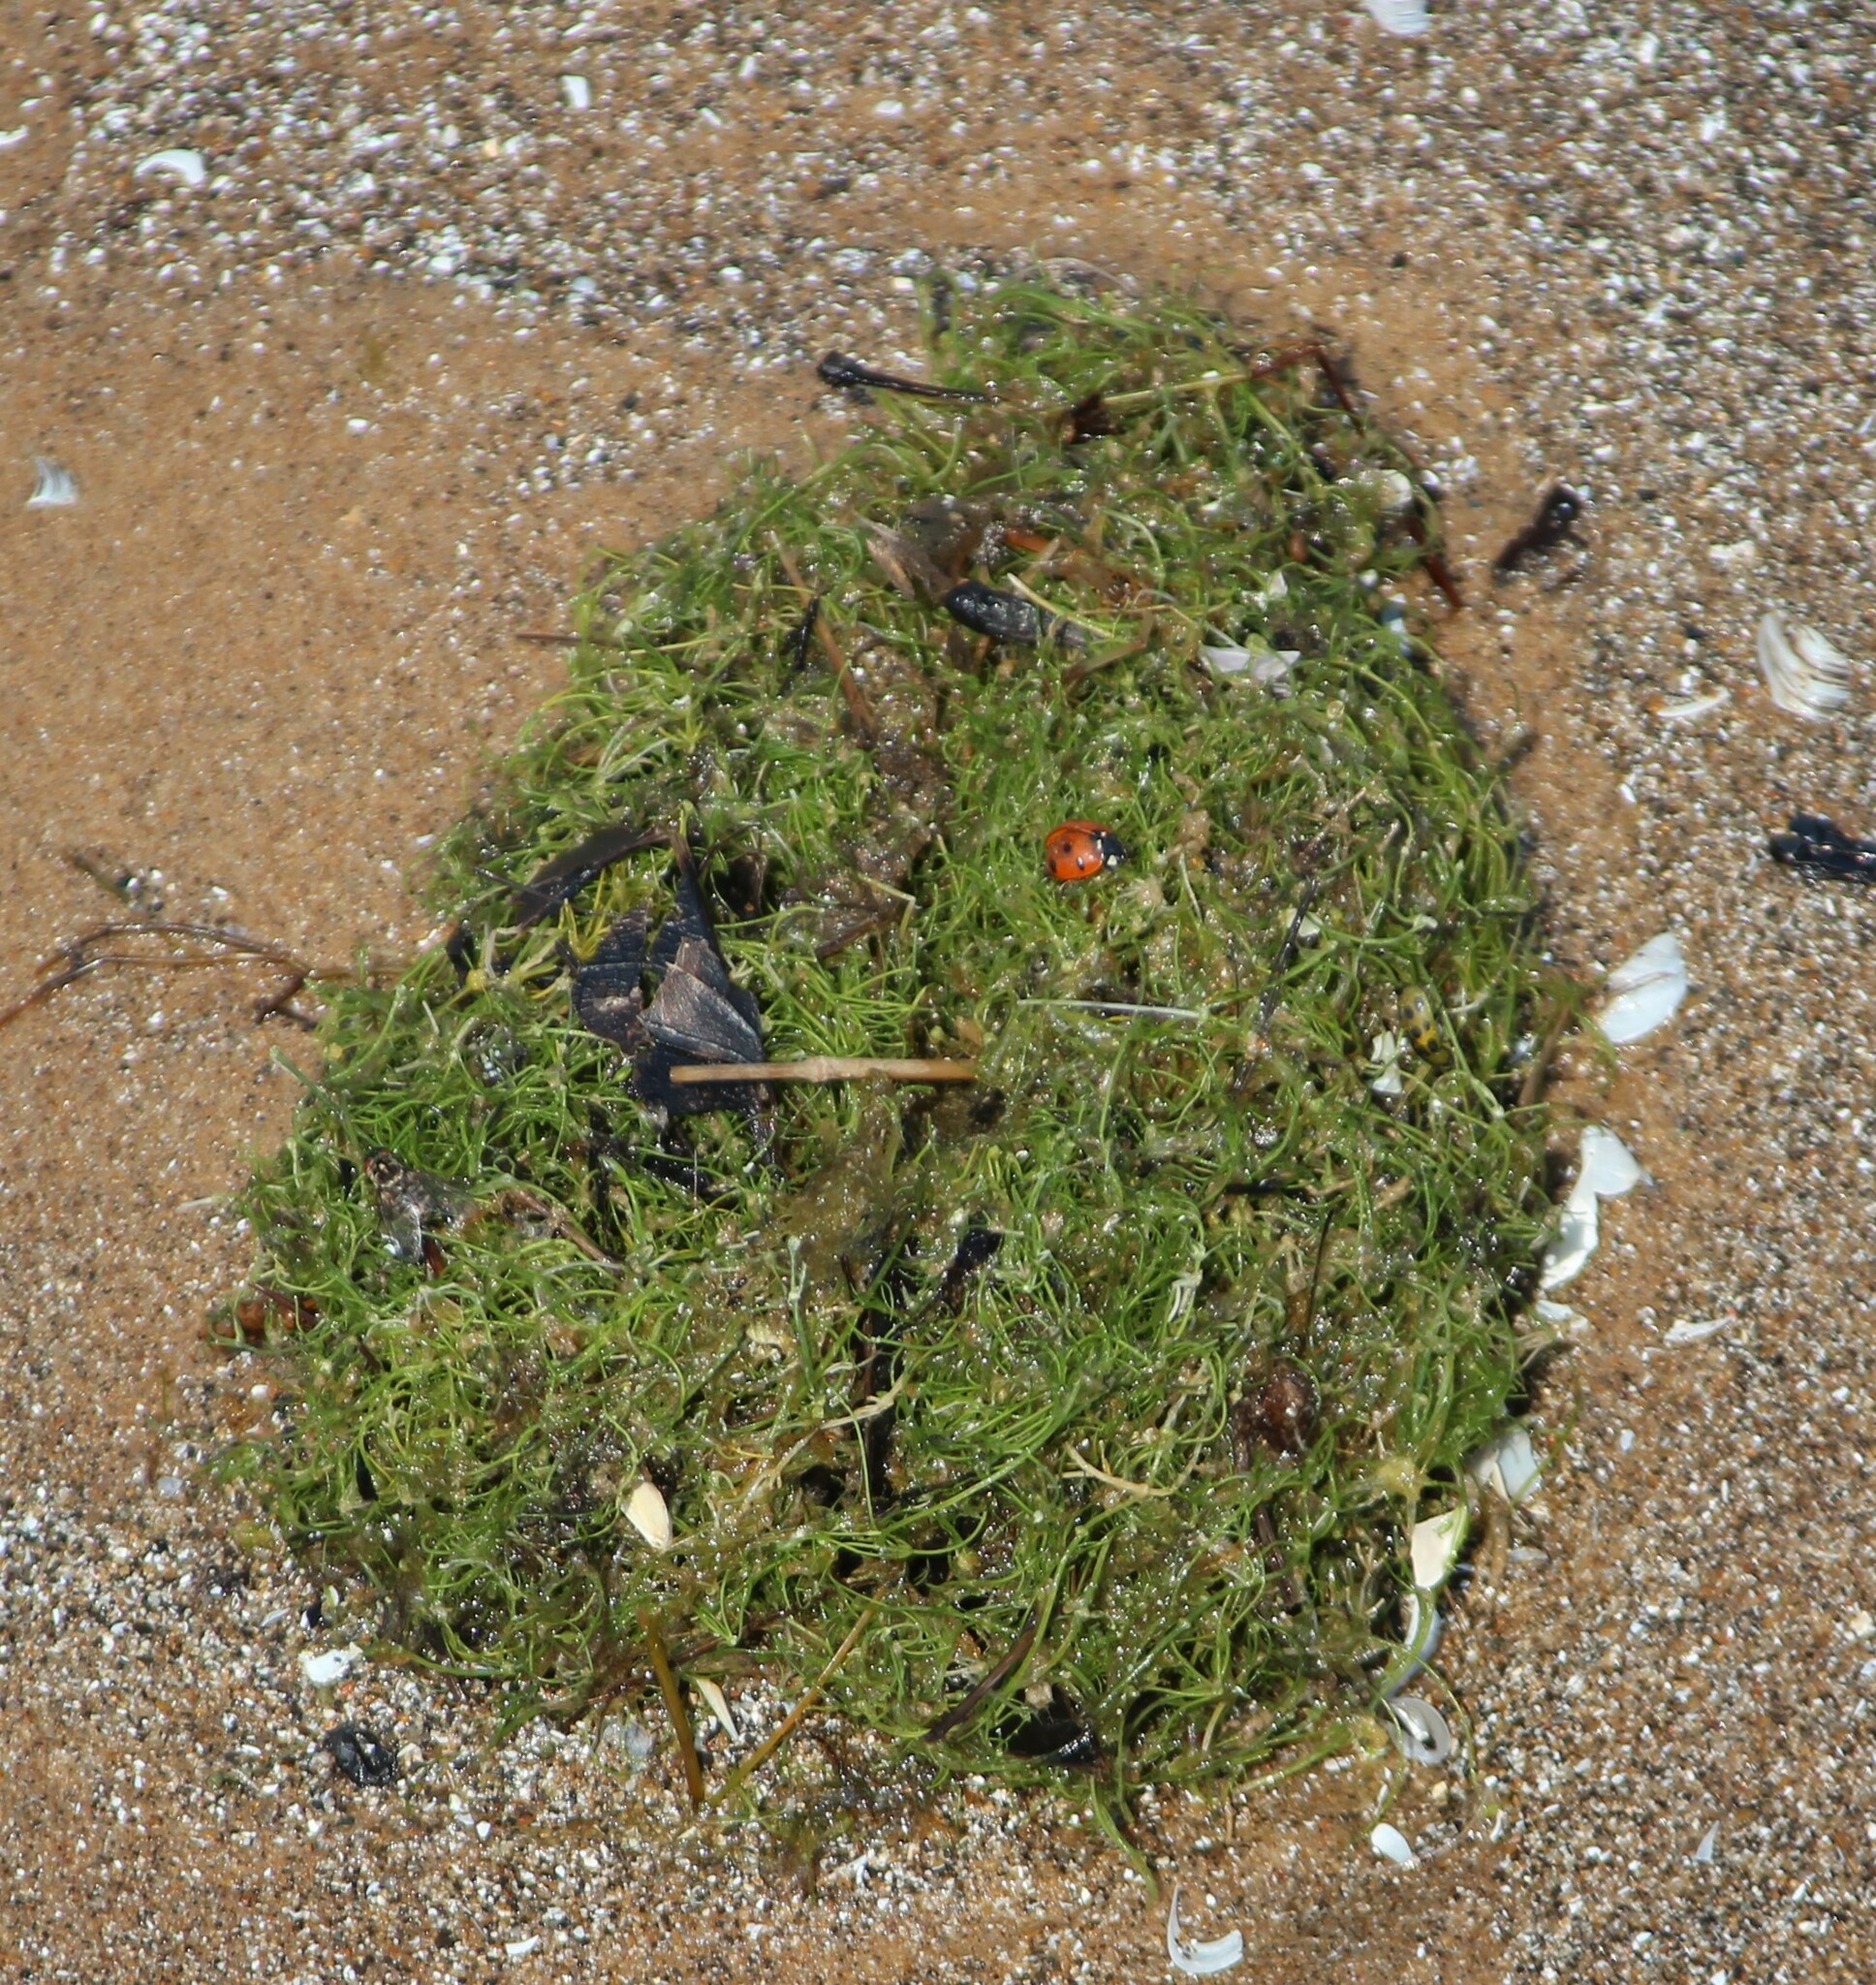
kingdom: Plantae
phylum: Charophyta
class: Charophyceae
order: Charales
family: Characeae
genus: Chara
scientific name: Chara
